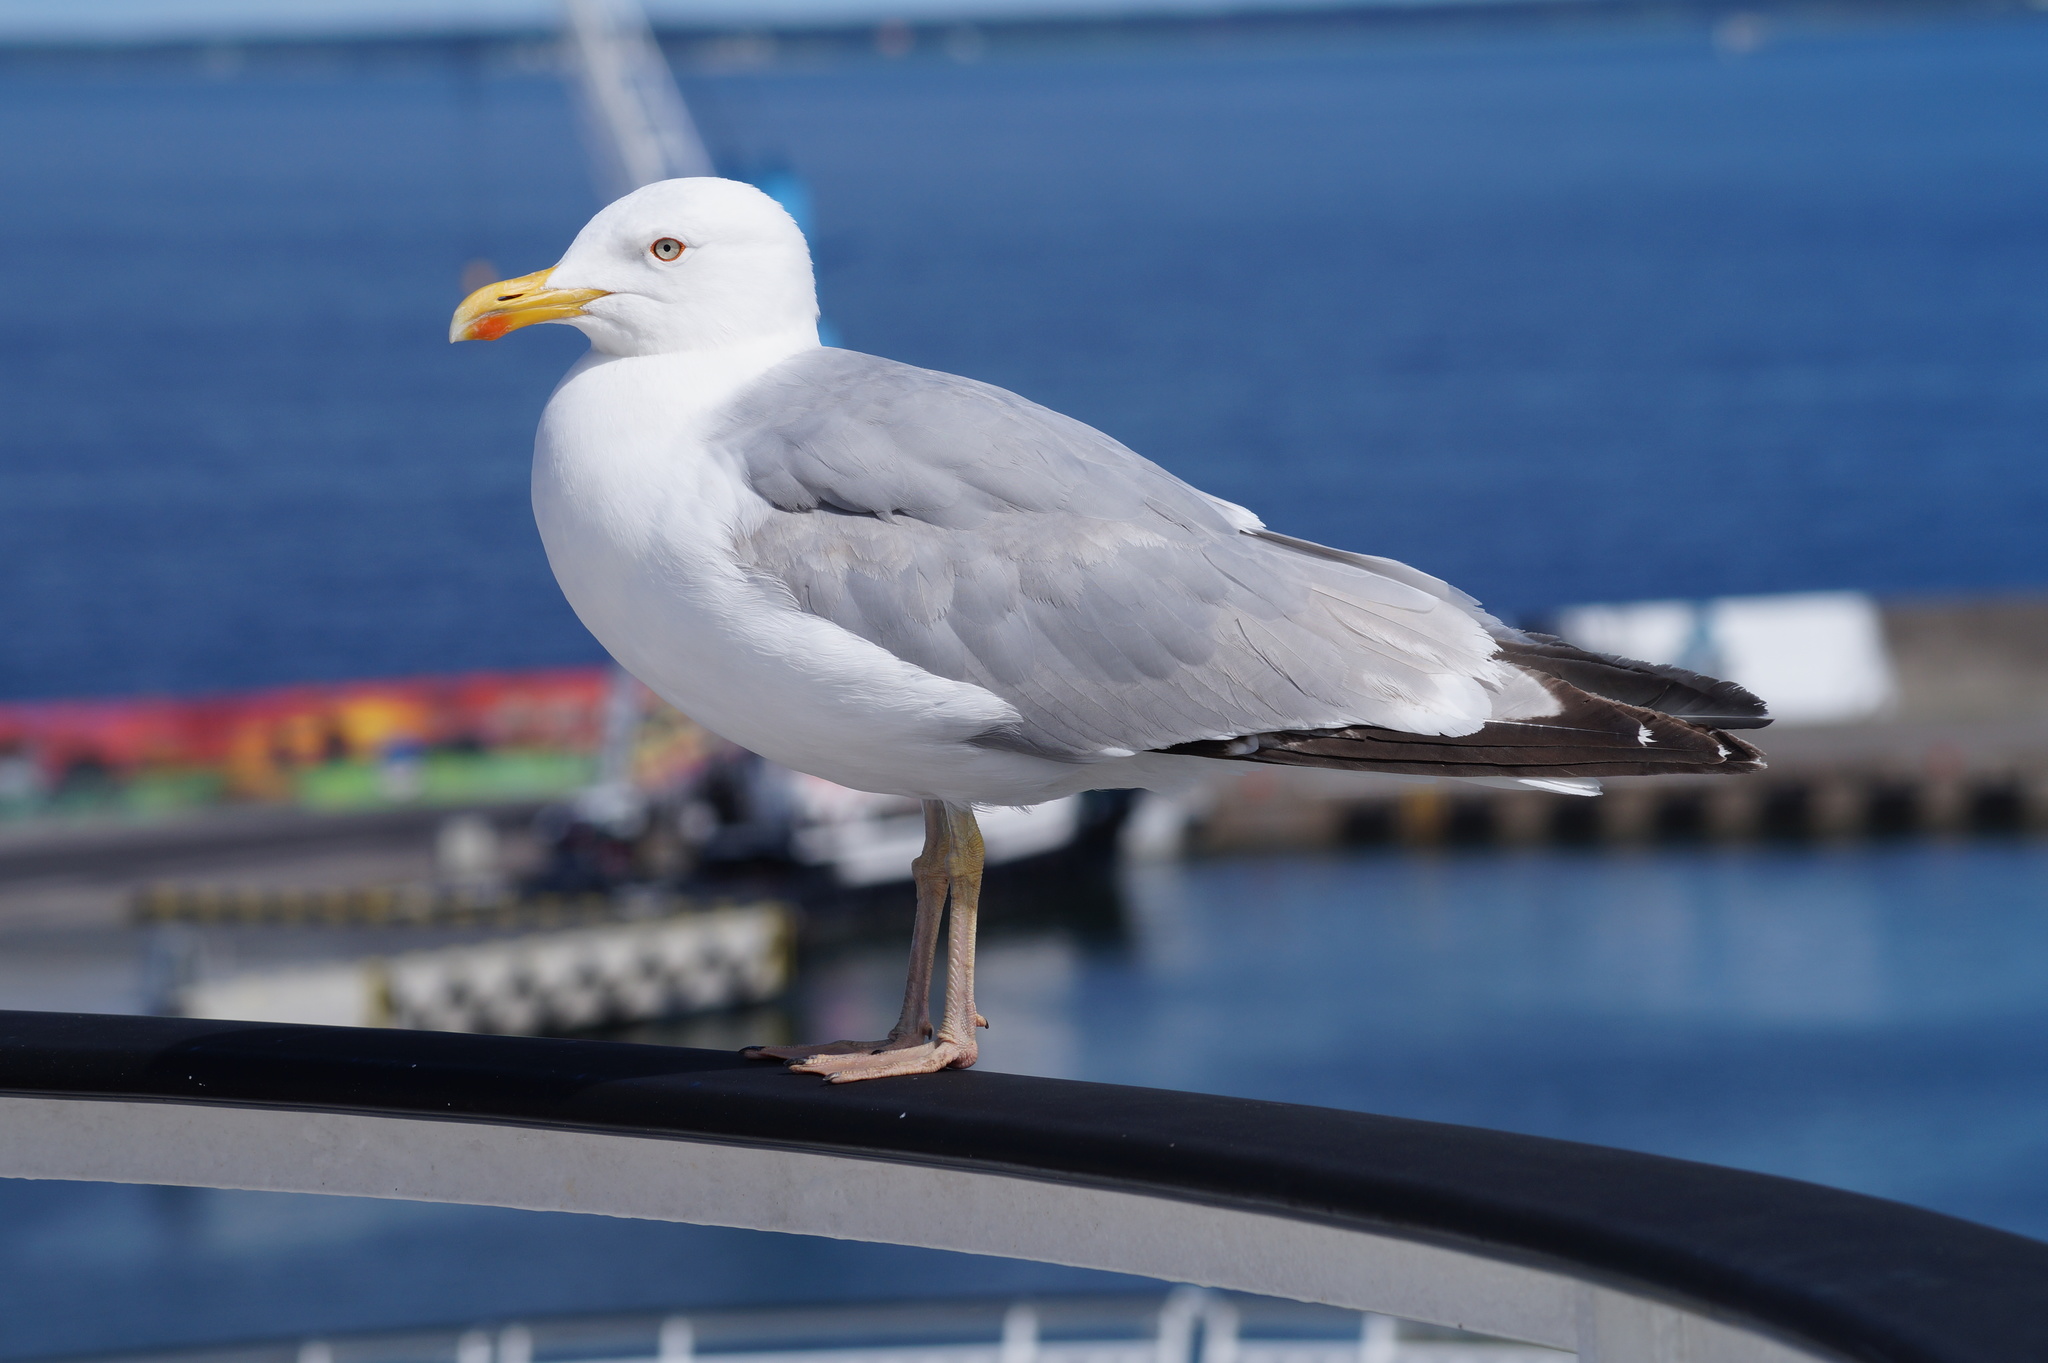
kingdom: Animalia
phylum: Chordata
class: Aves
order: Charadriiformes
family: Laridae
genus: Larus
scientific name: Larus argentatus
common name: Herring gull
